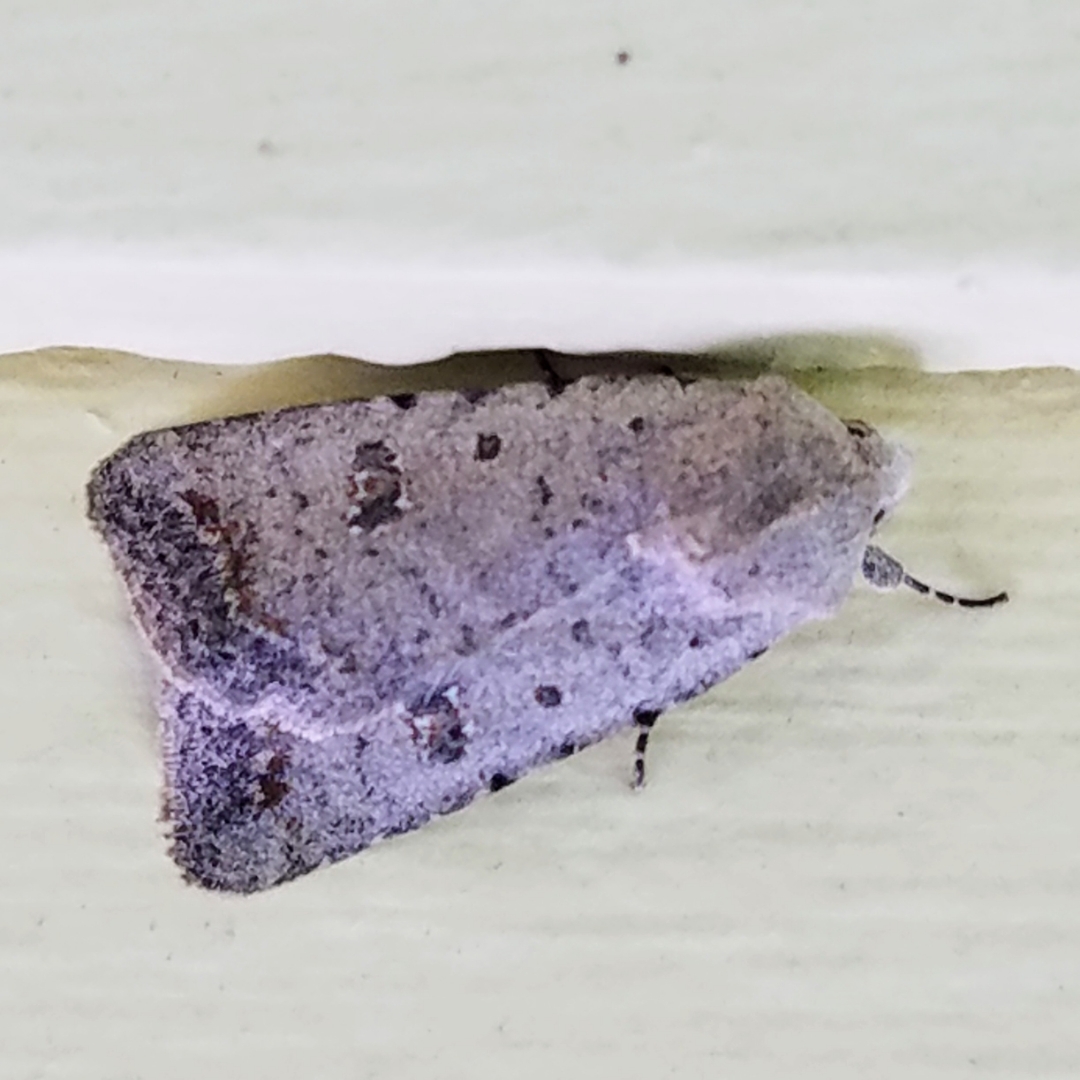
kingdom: Animalia
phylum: Arthropoda
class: Insecta
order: Lepidoptera
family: Noctuidae
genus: Caradrina
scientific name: Caradrina montana
